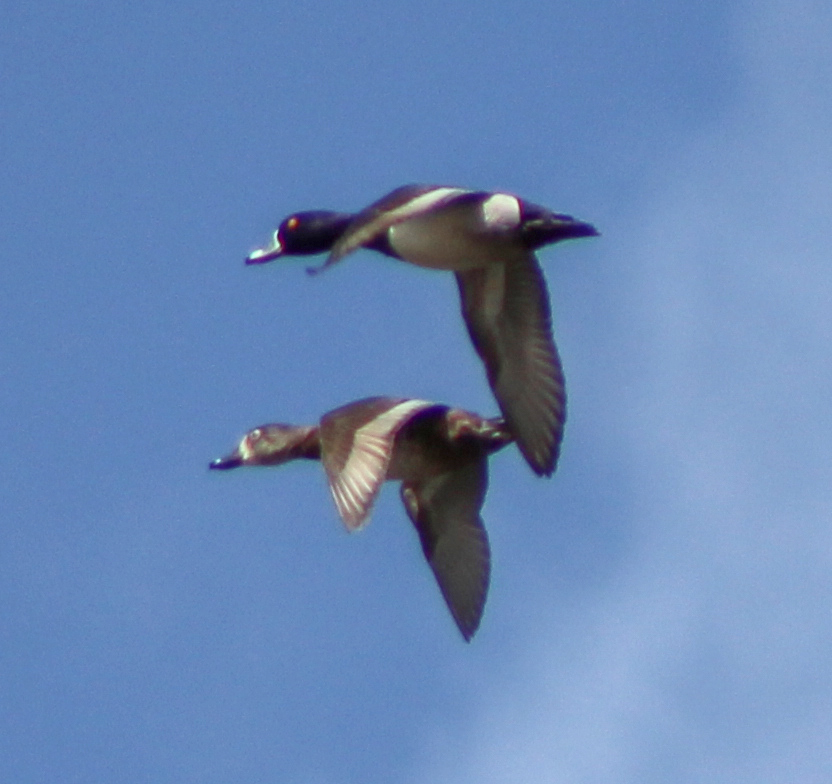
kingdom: Animalia
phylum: Chordata
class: Aves
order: Anseriformes
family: Anatidae
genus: Aythya
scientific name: Aythya collaris
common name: Ring-necked duck
